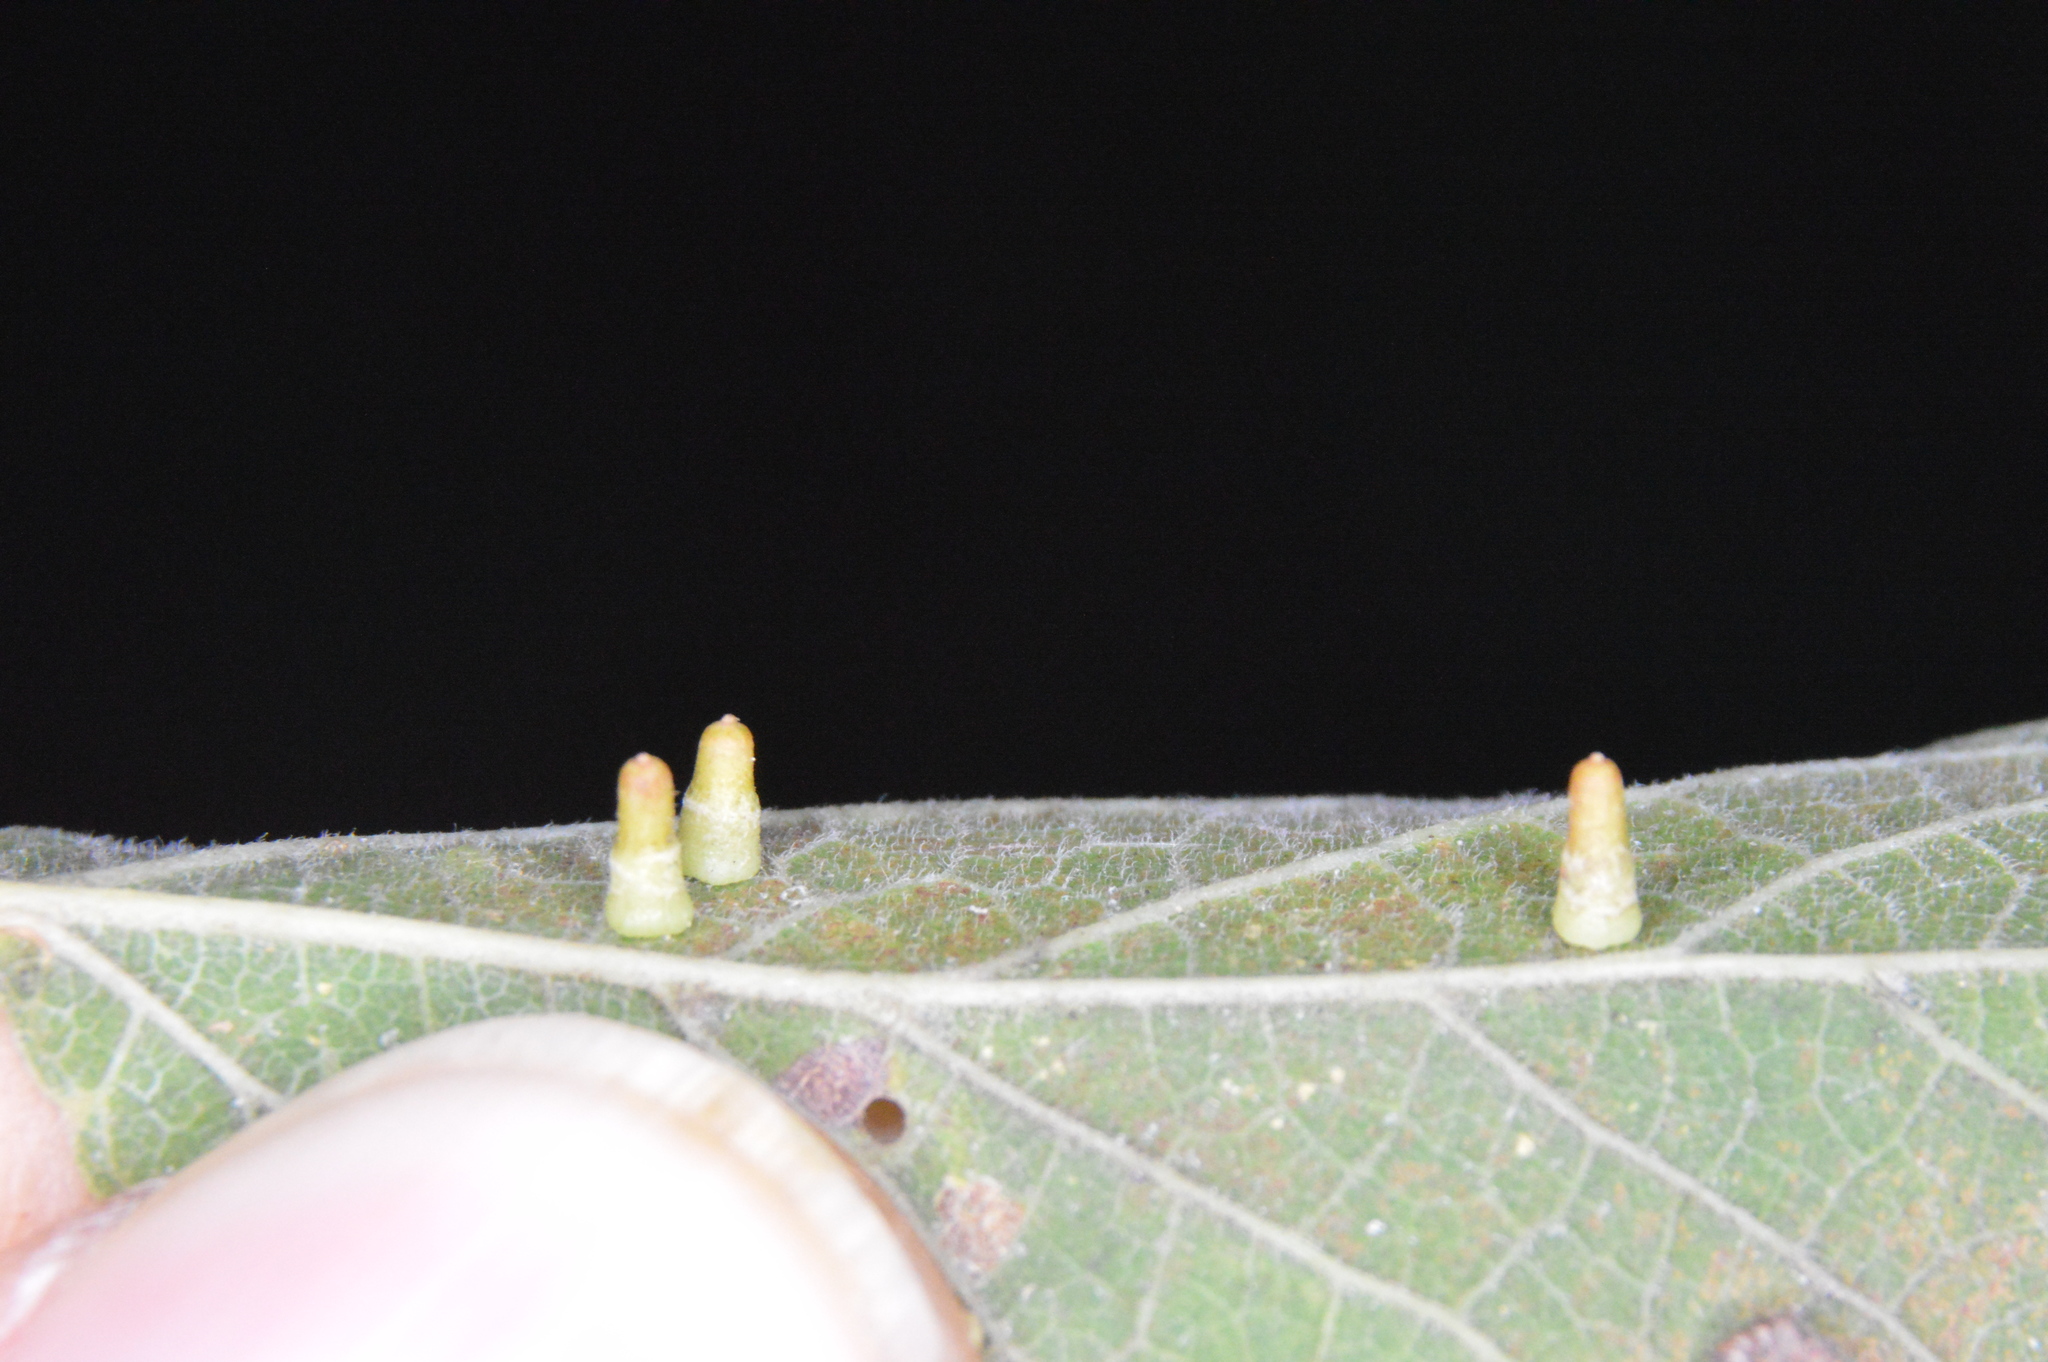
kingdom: Animalia
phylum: Arthropoda
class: Insecta
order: Diptera
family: Cecidomyiidae
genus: Celticecis
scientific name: Celticecis aciculata
